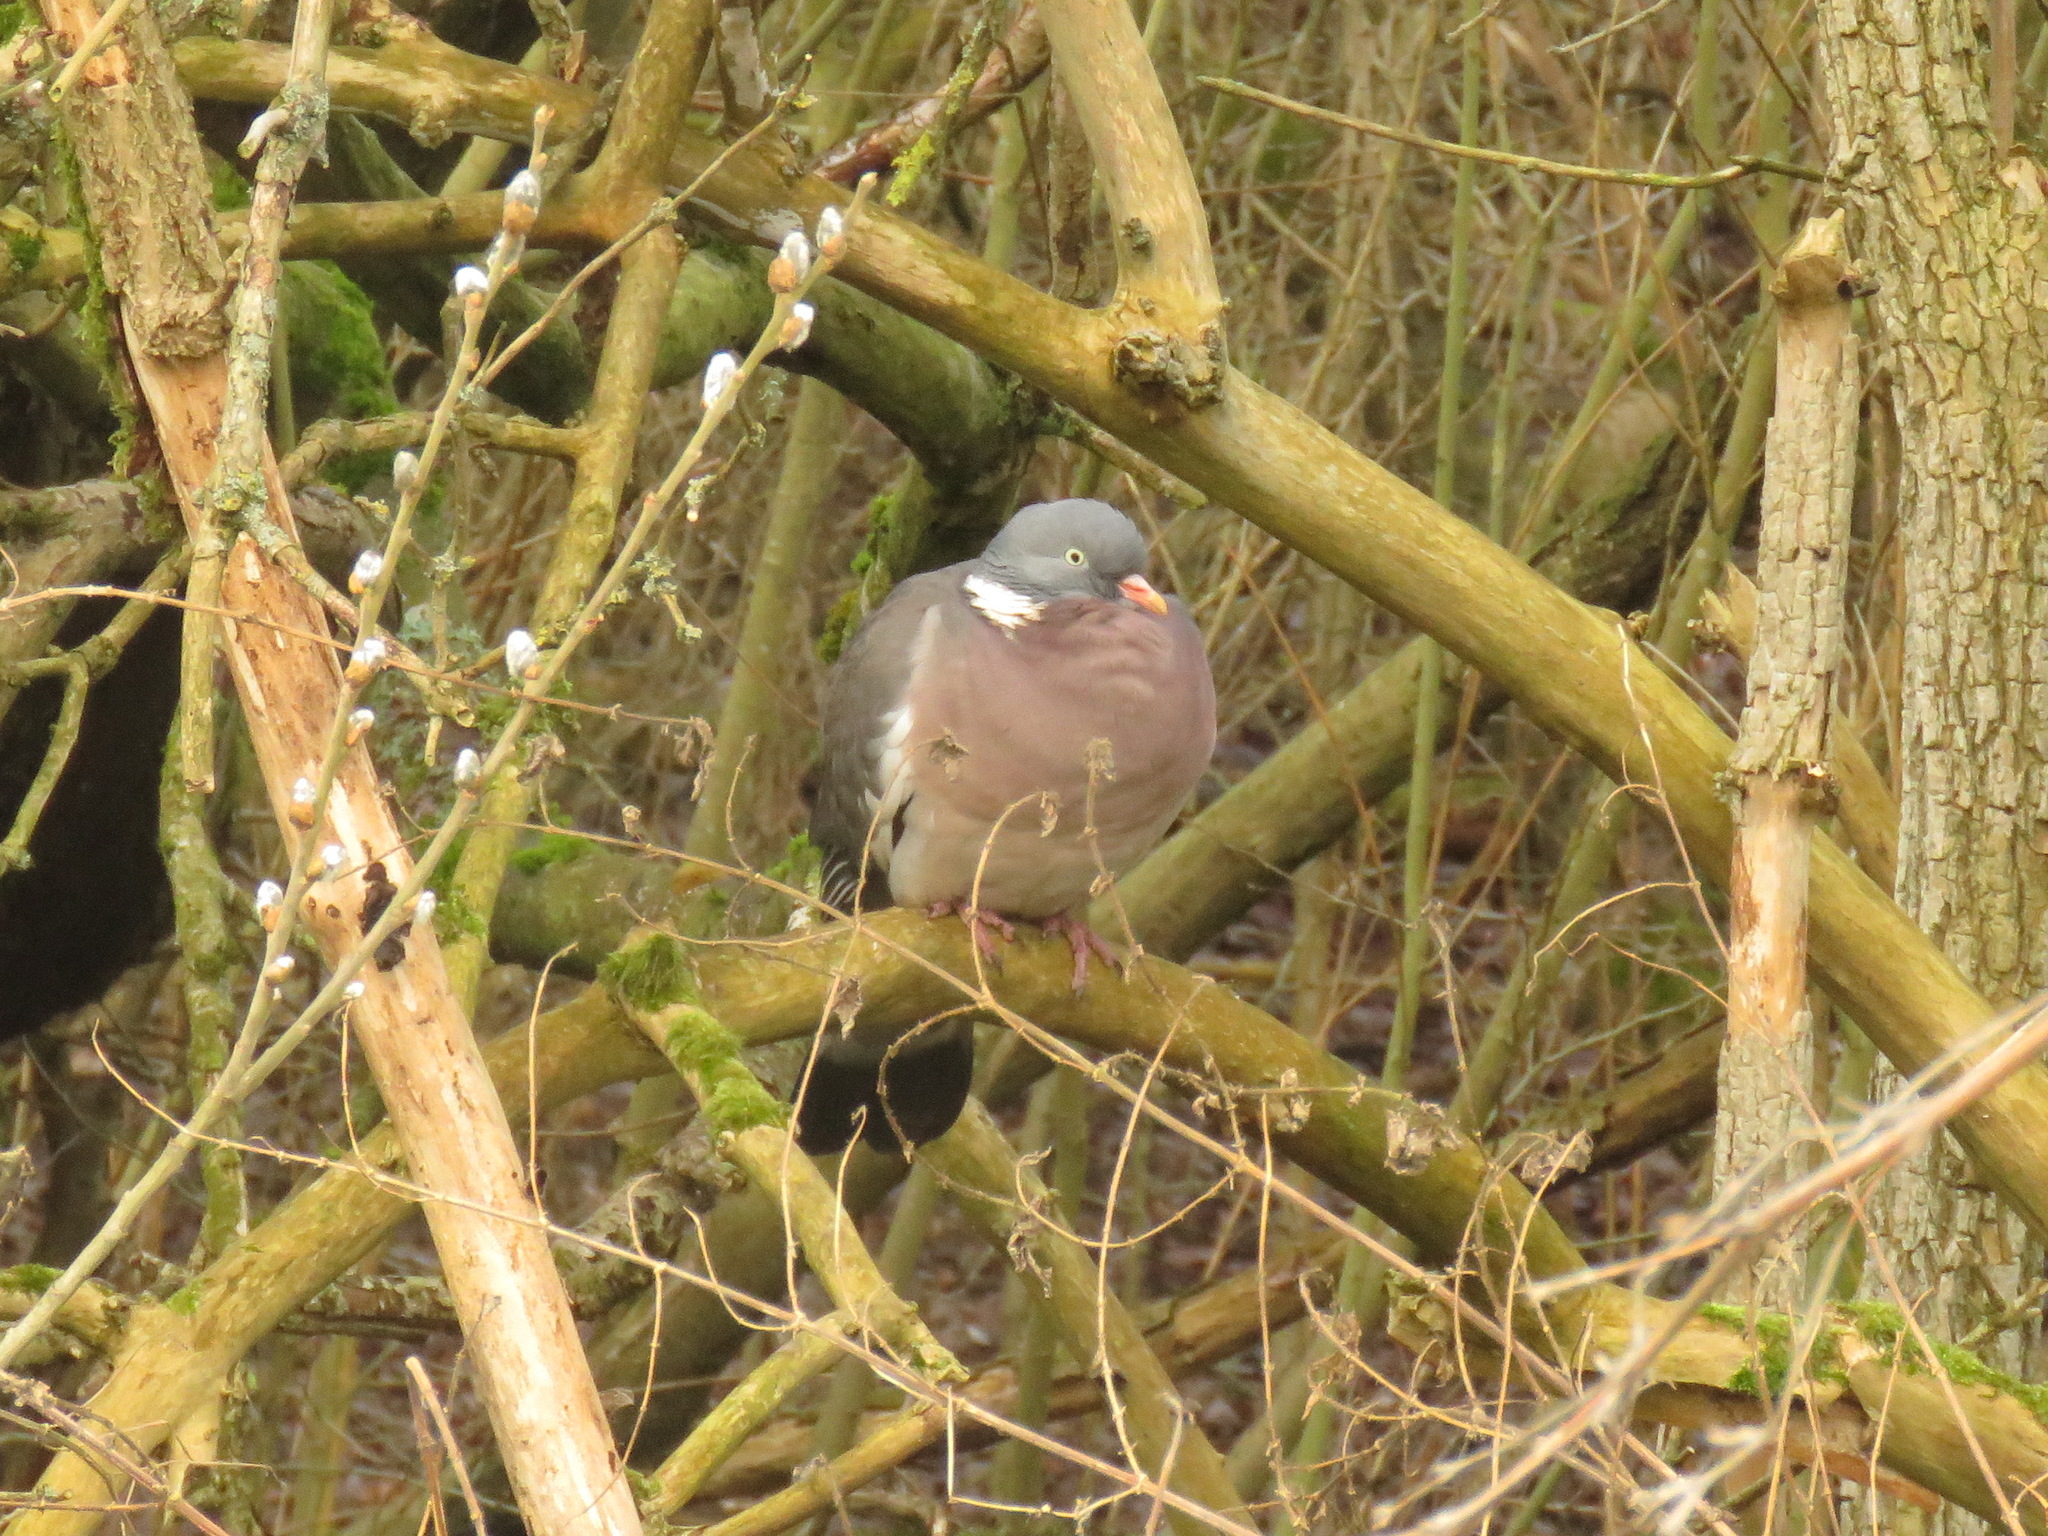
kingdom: Animalia
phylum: Chordata
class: Aves
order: Columbiformes
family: Columbidae
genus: Columba
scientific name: Columba palumbus
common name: Common wood pigeon
